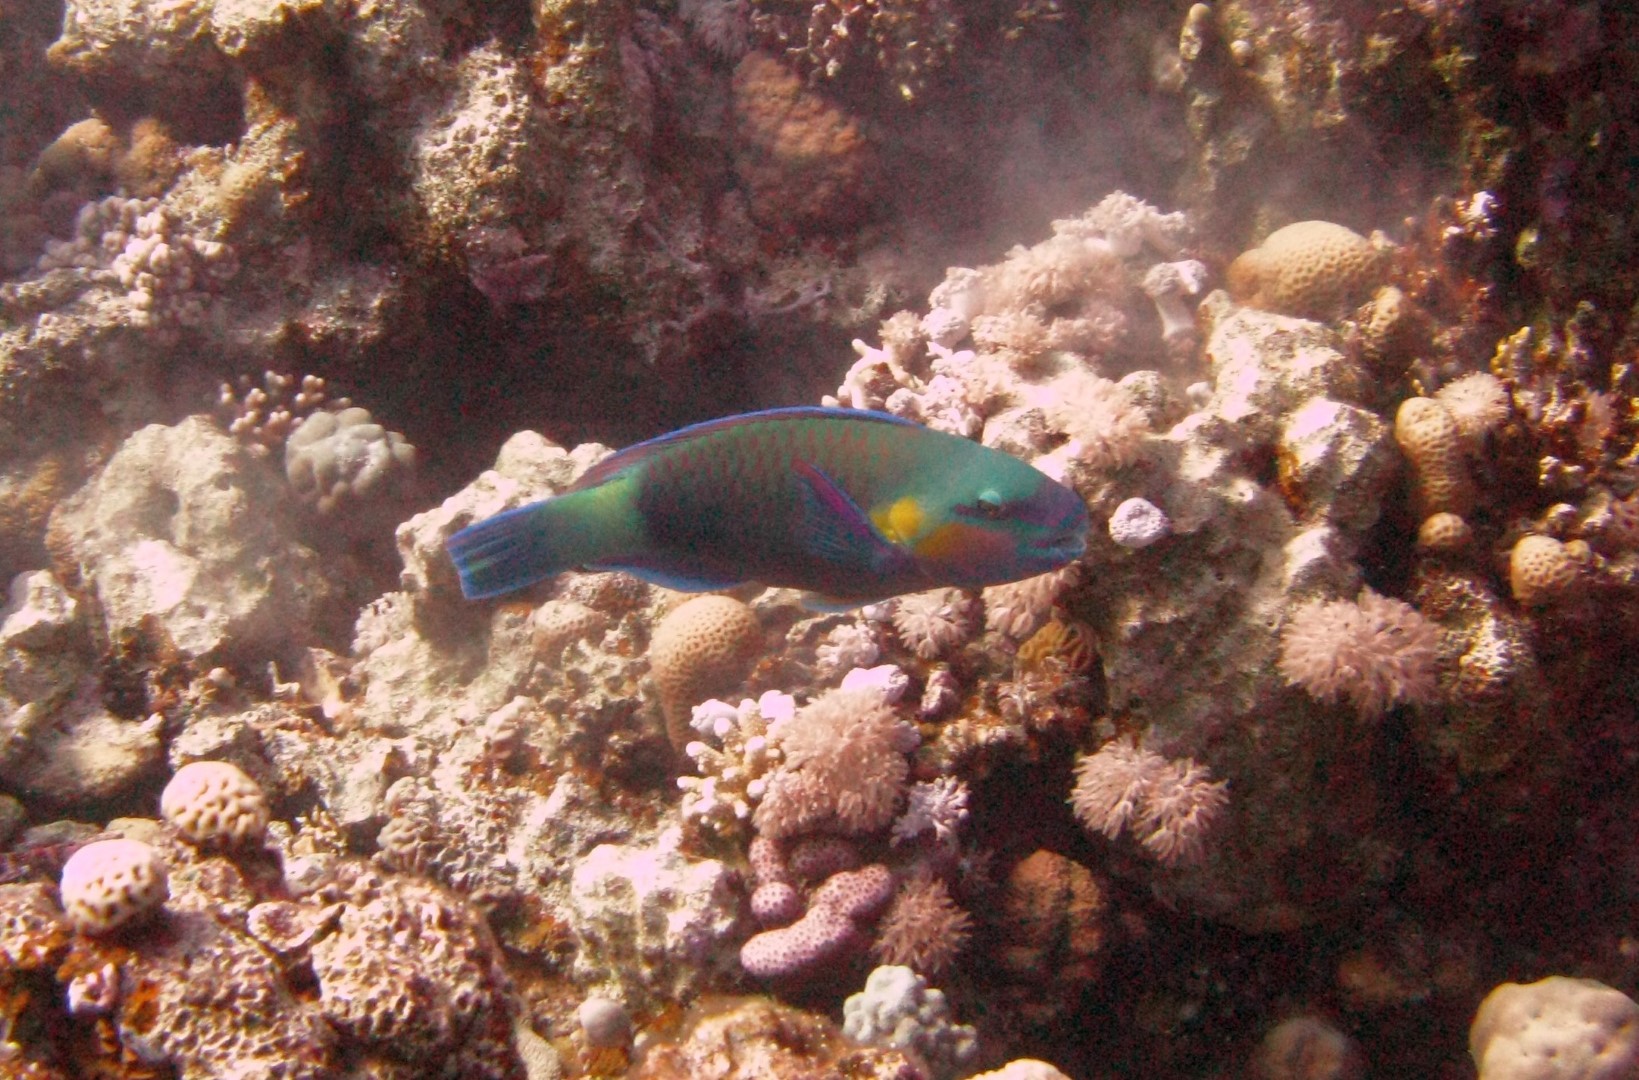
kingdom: Animalia
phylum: Chordata
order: Perciformes
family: Scaridae
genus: Chlorurus
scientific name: Chlorurus sordidus
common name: Bullethead parrotfish
